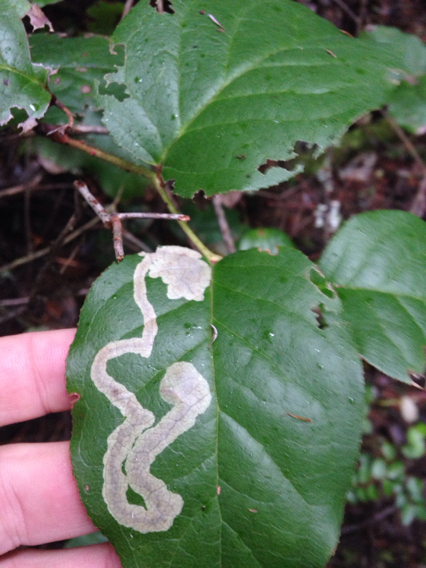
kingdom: Animalia
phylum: Arthropoda
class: Insecta
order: Lepidoptera
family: Gracillariidae
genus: Cameraria
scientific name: Cameraria gaultheriella
